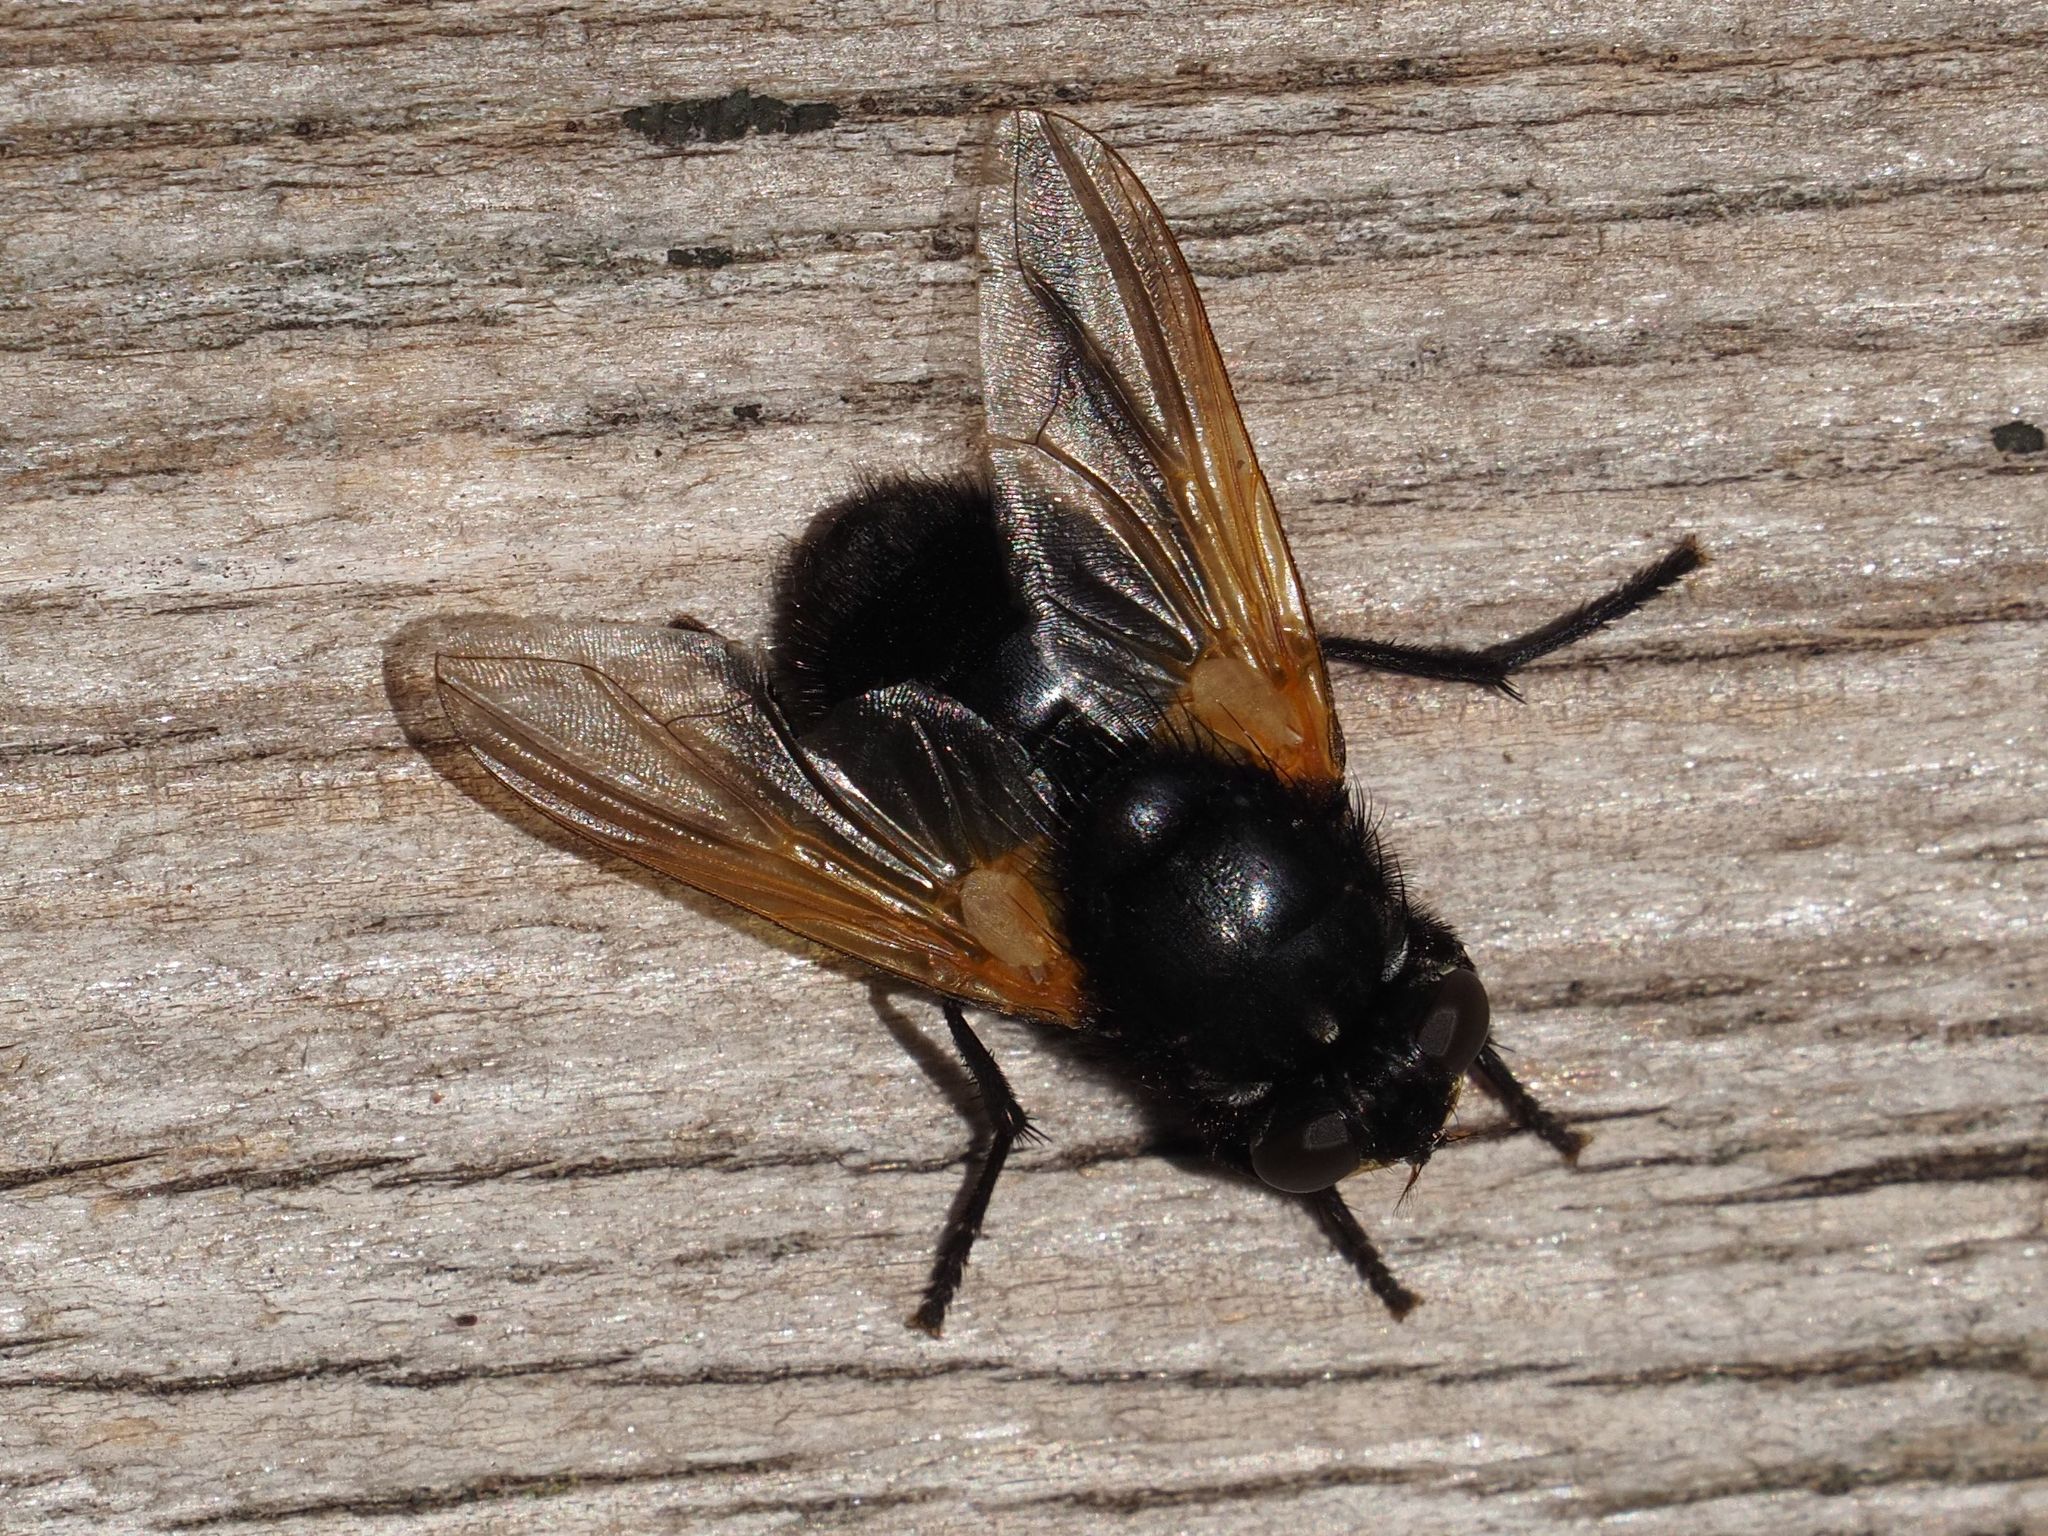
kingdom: Animalia
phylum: Arthropoda
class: Insecta
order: Diptera
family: Muscidae
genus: Mesembrina
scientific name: Mesembrina meridiana
